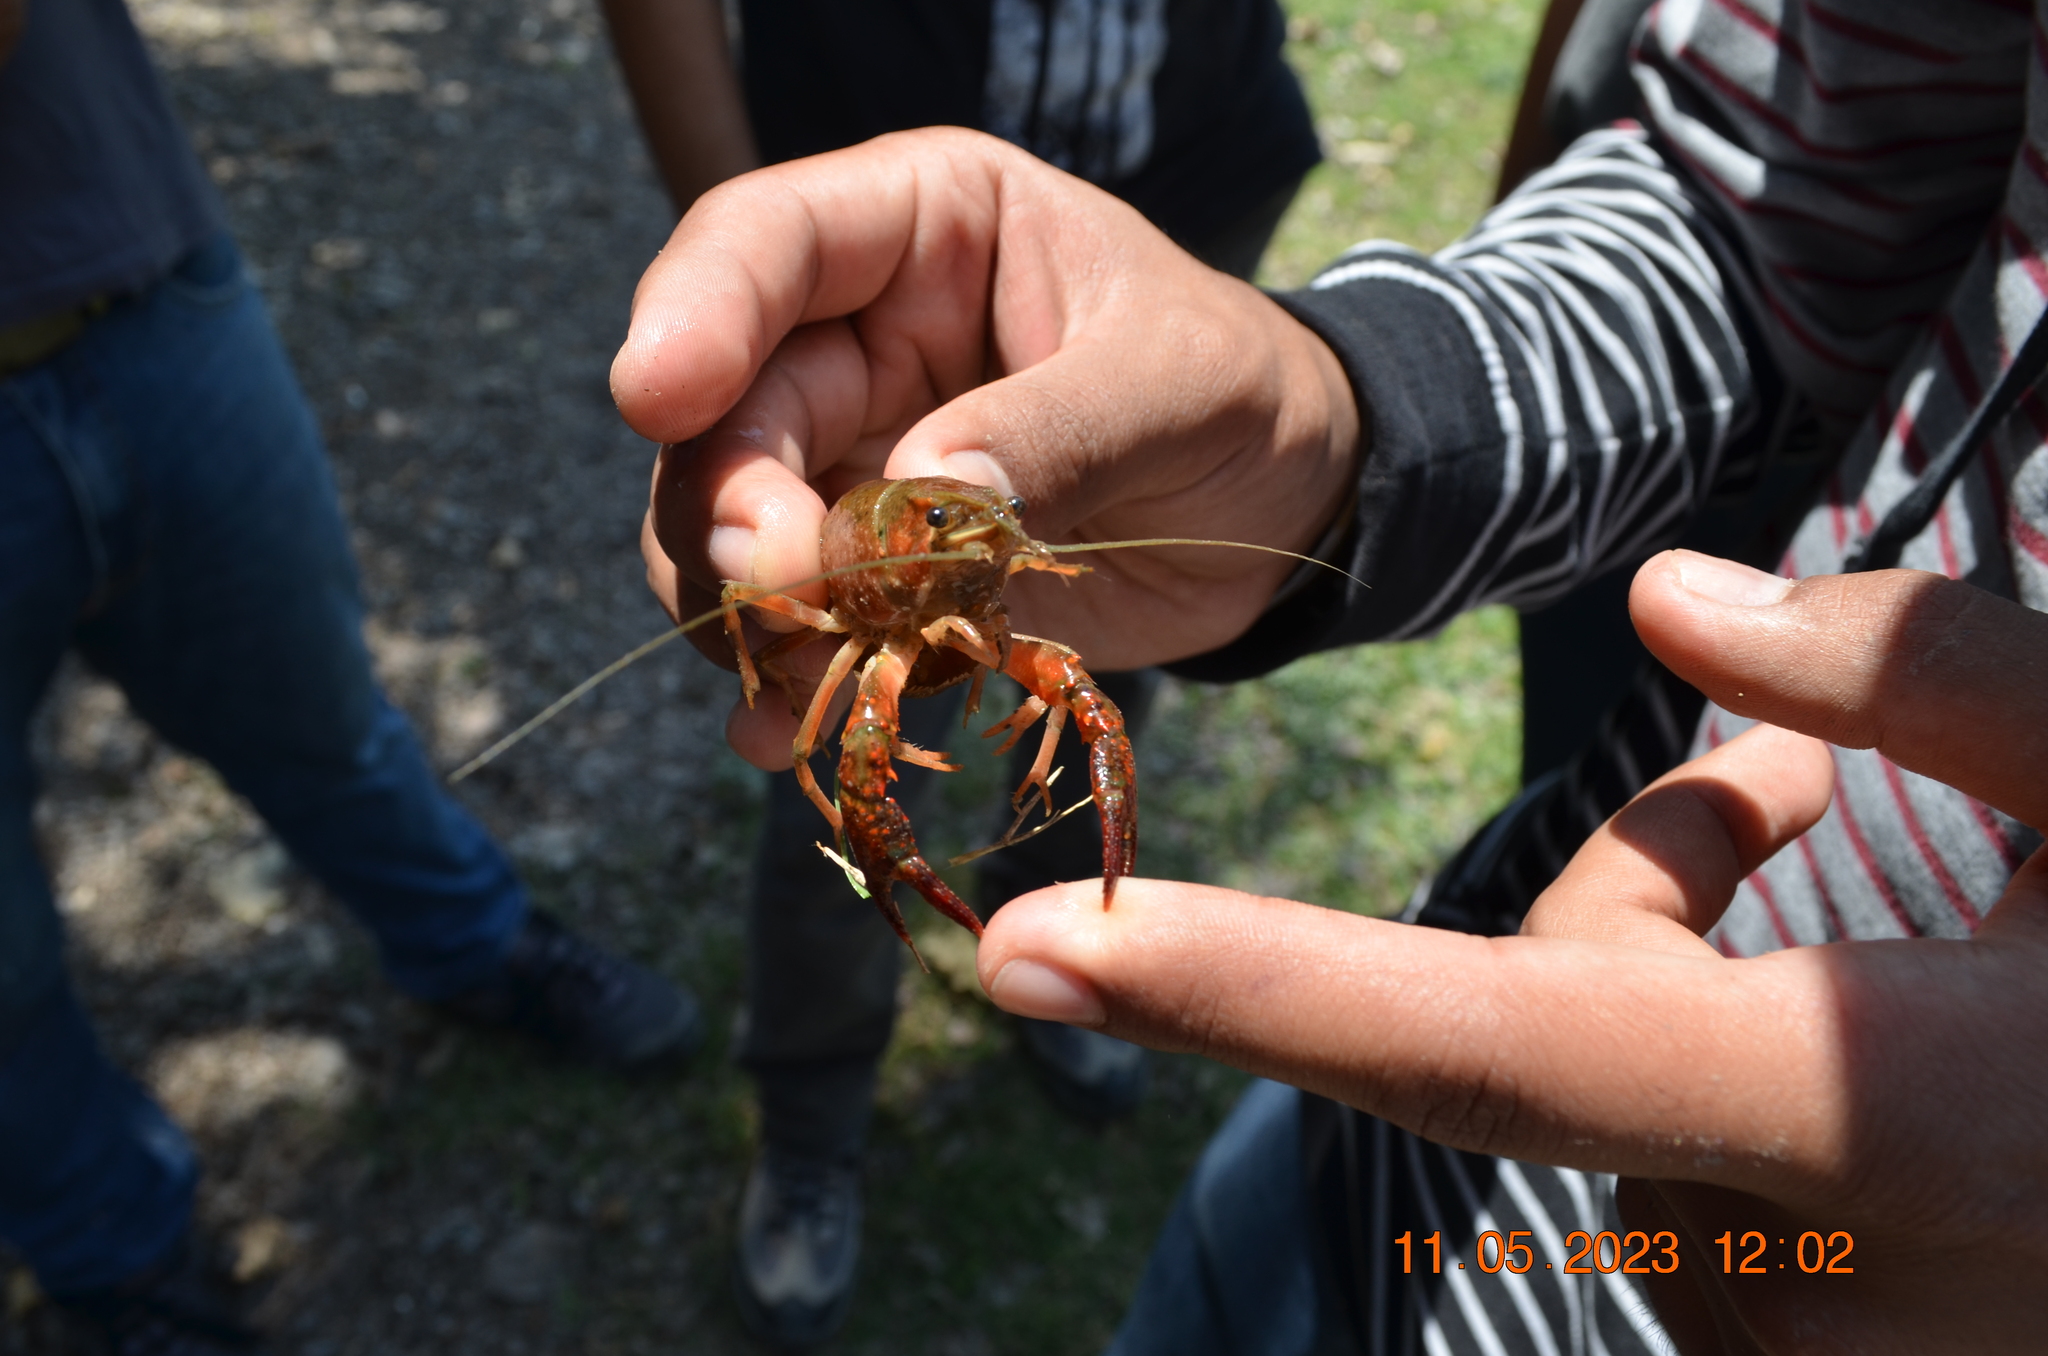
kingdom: Animalia
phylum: Arthropoda
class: Malacostraca
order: Decapoda
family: Cambaridae
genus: Procambarus
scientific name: Procambarus clarkii
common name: Red swamp crayfish
